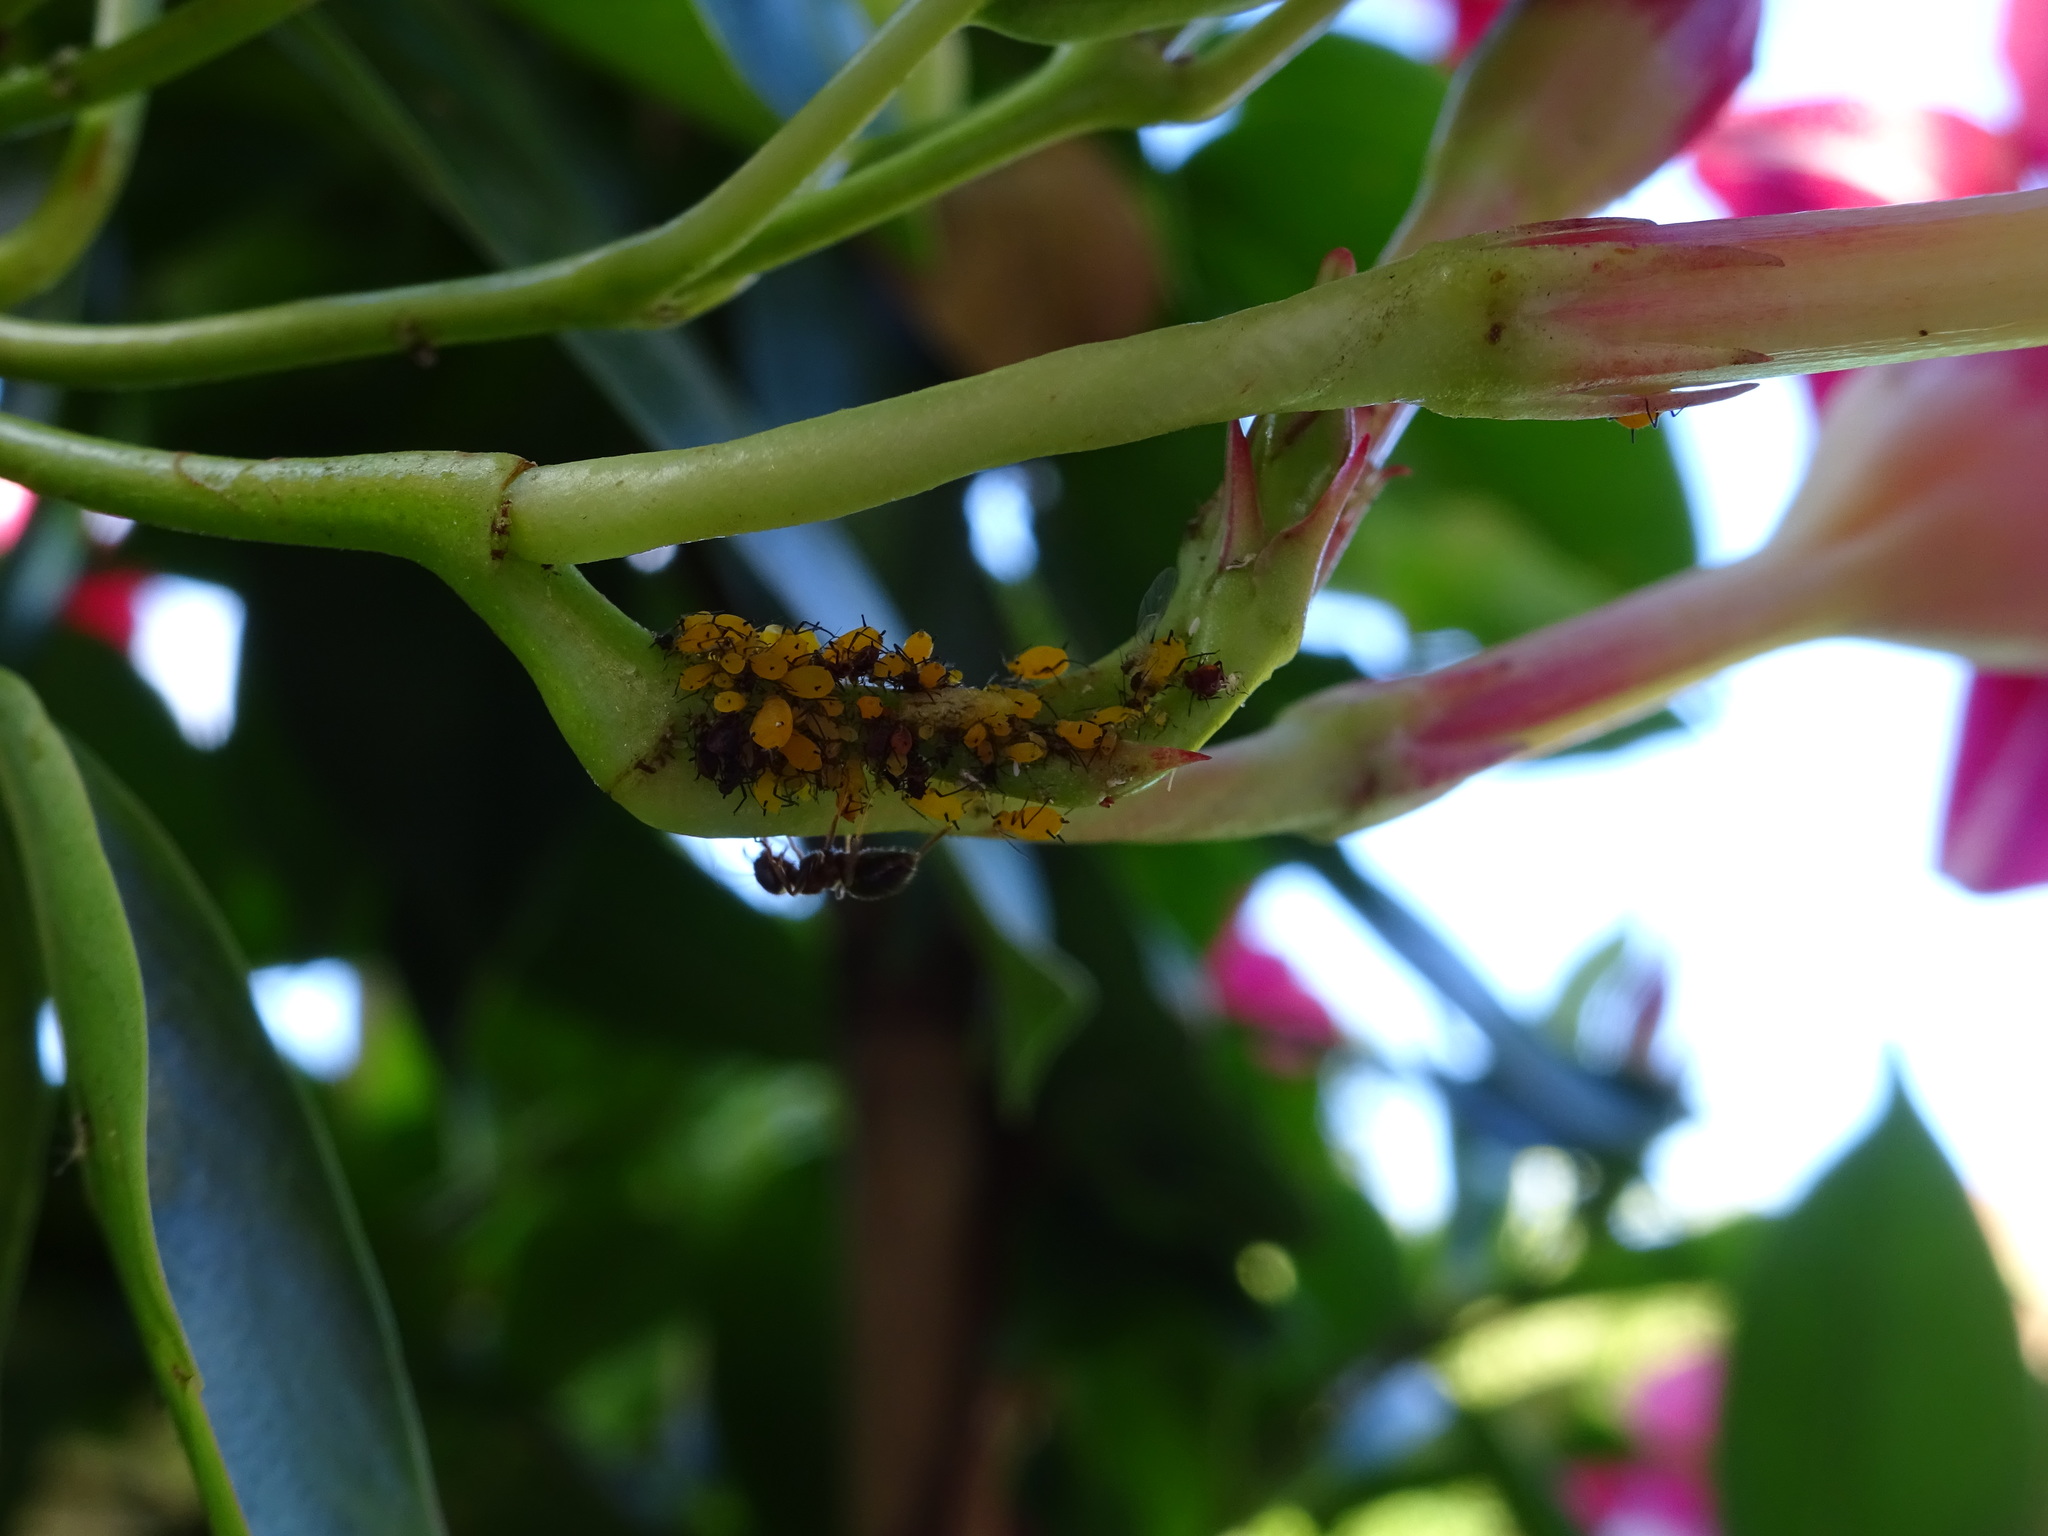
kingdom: Animalia
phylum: Arthropoda
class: Insecta
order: Hemiptera
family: Aphididae
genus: Aphis
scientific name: Aphis nerii
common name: Oleander aphid
